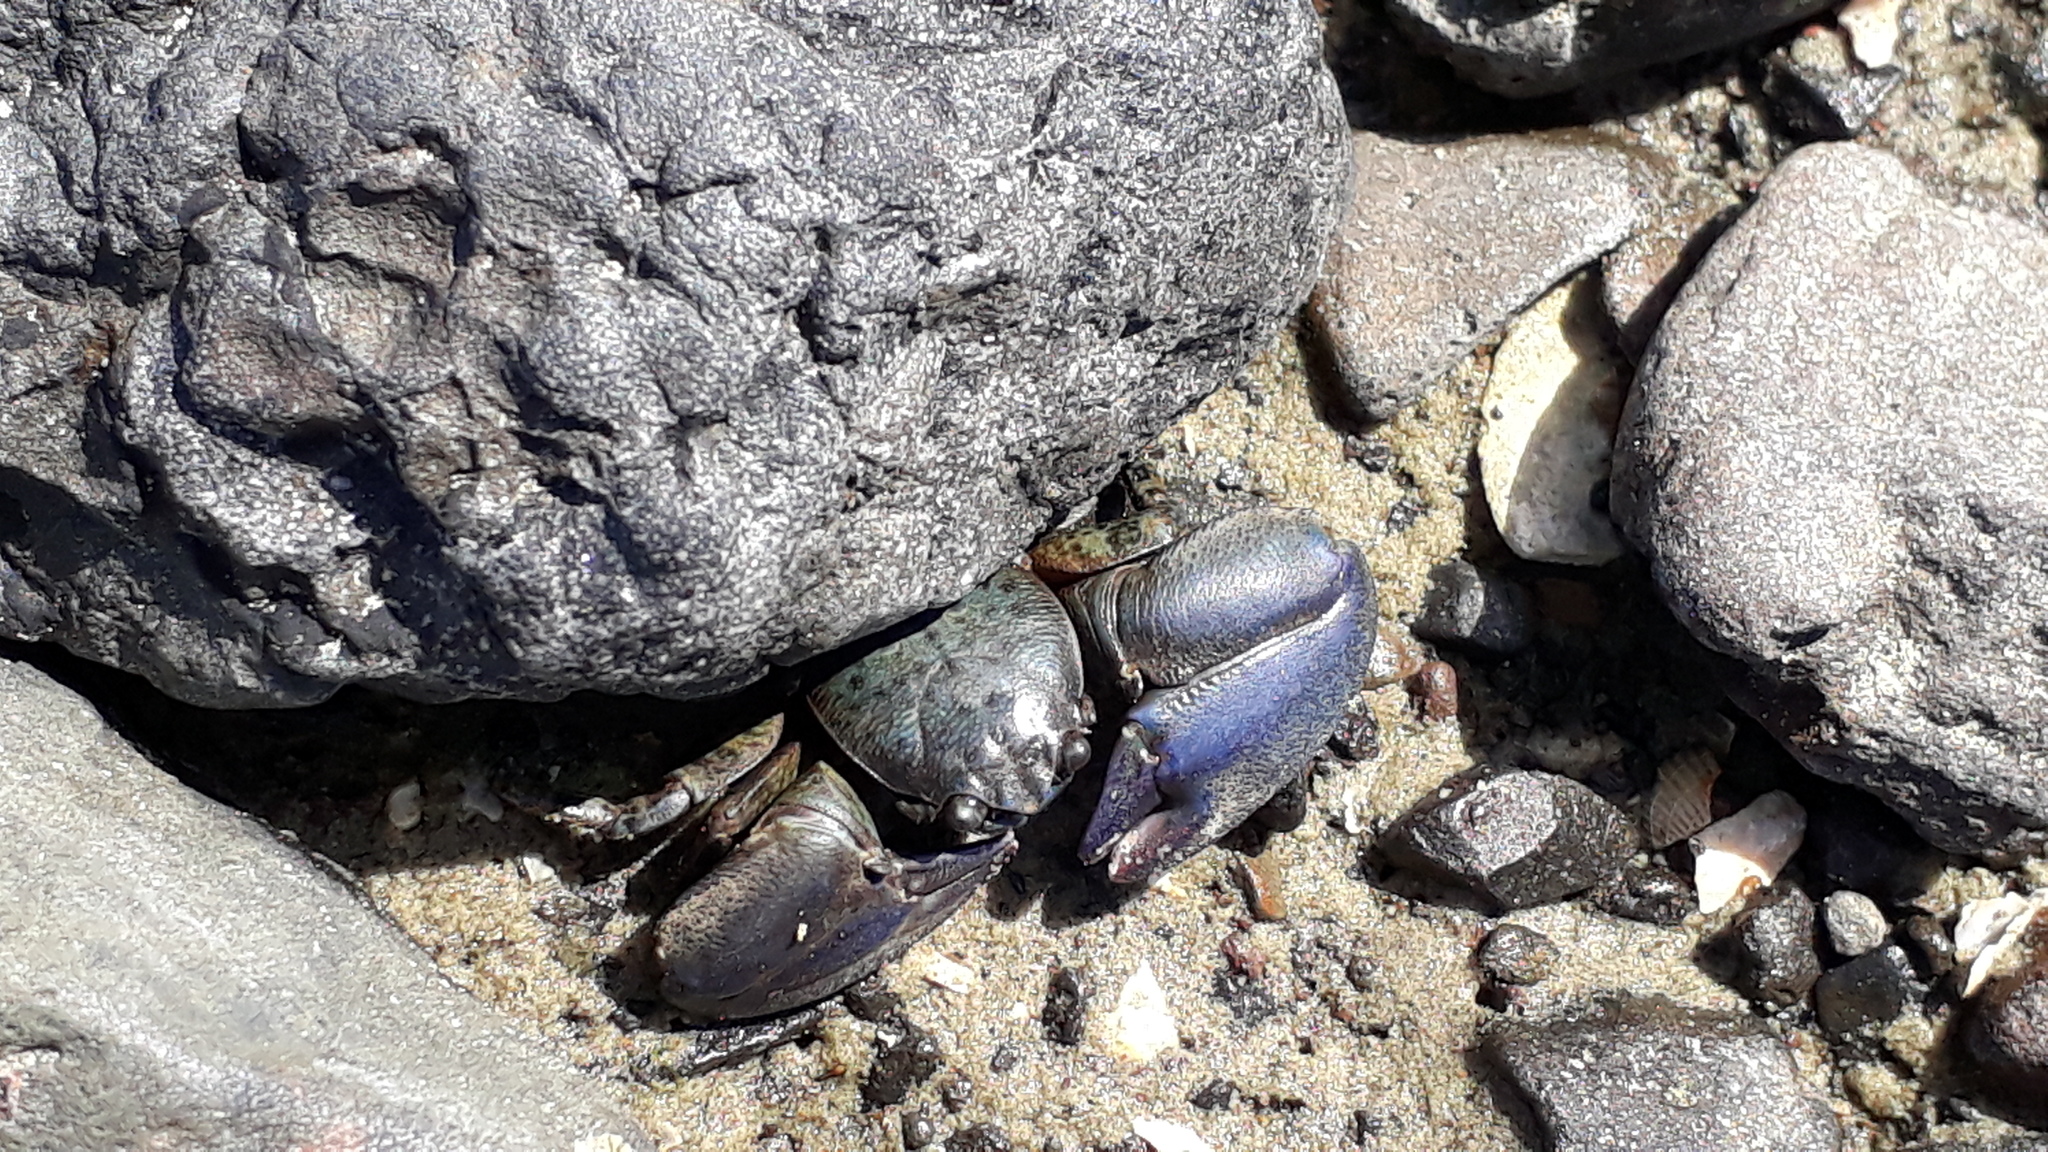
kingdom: Animalia
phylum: Arthropoda
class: Malacostraca
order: Decapoda
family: Porcellanidae
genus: Petrolisthes
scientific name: Petrolisthes elongatus
